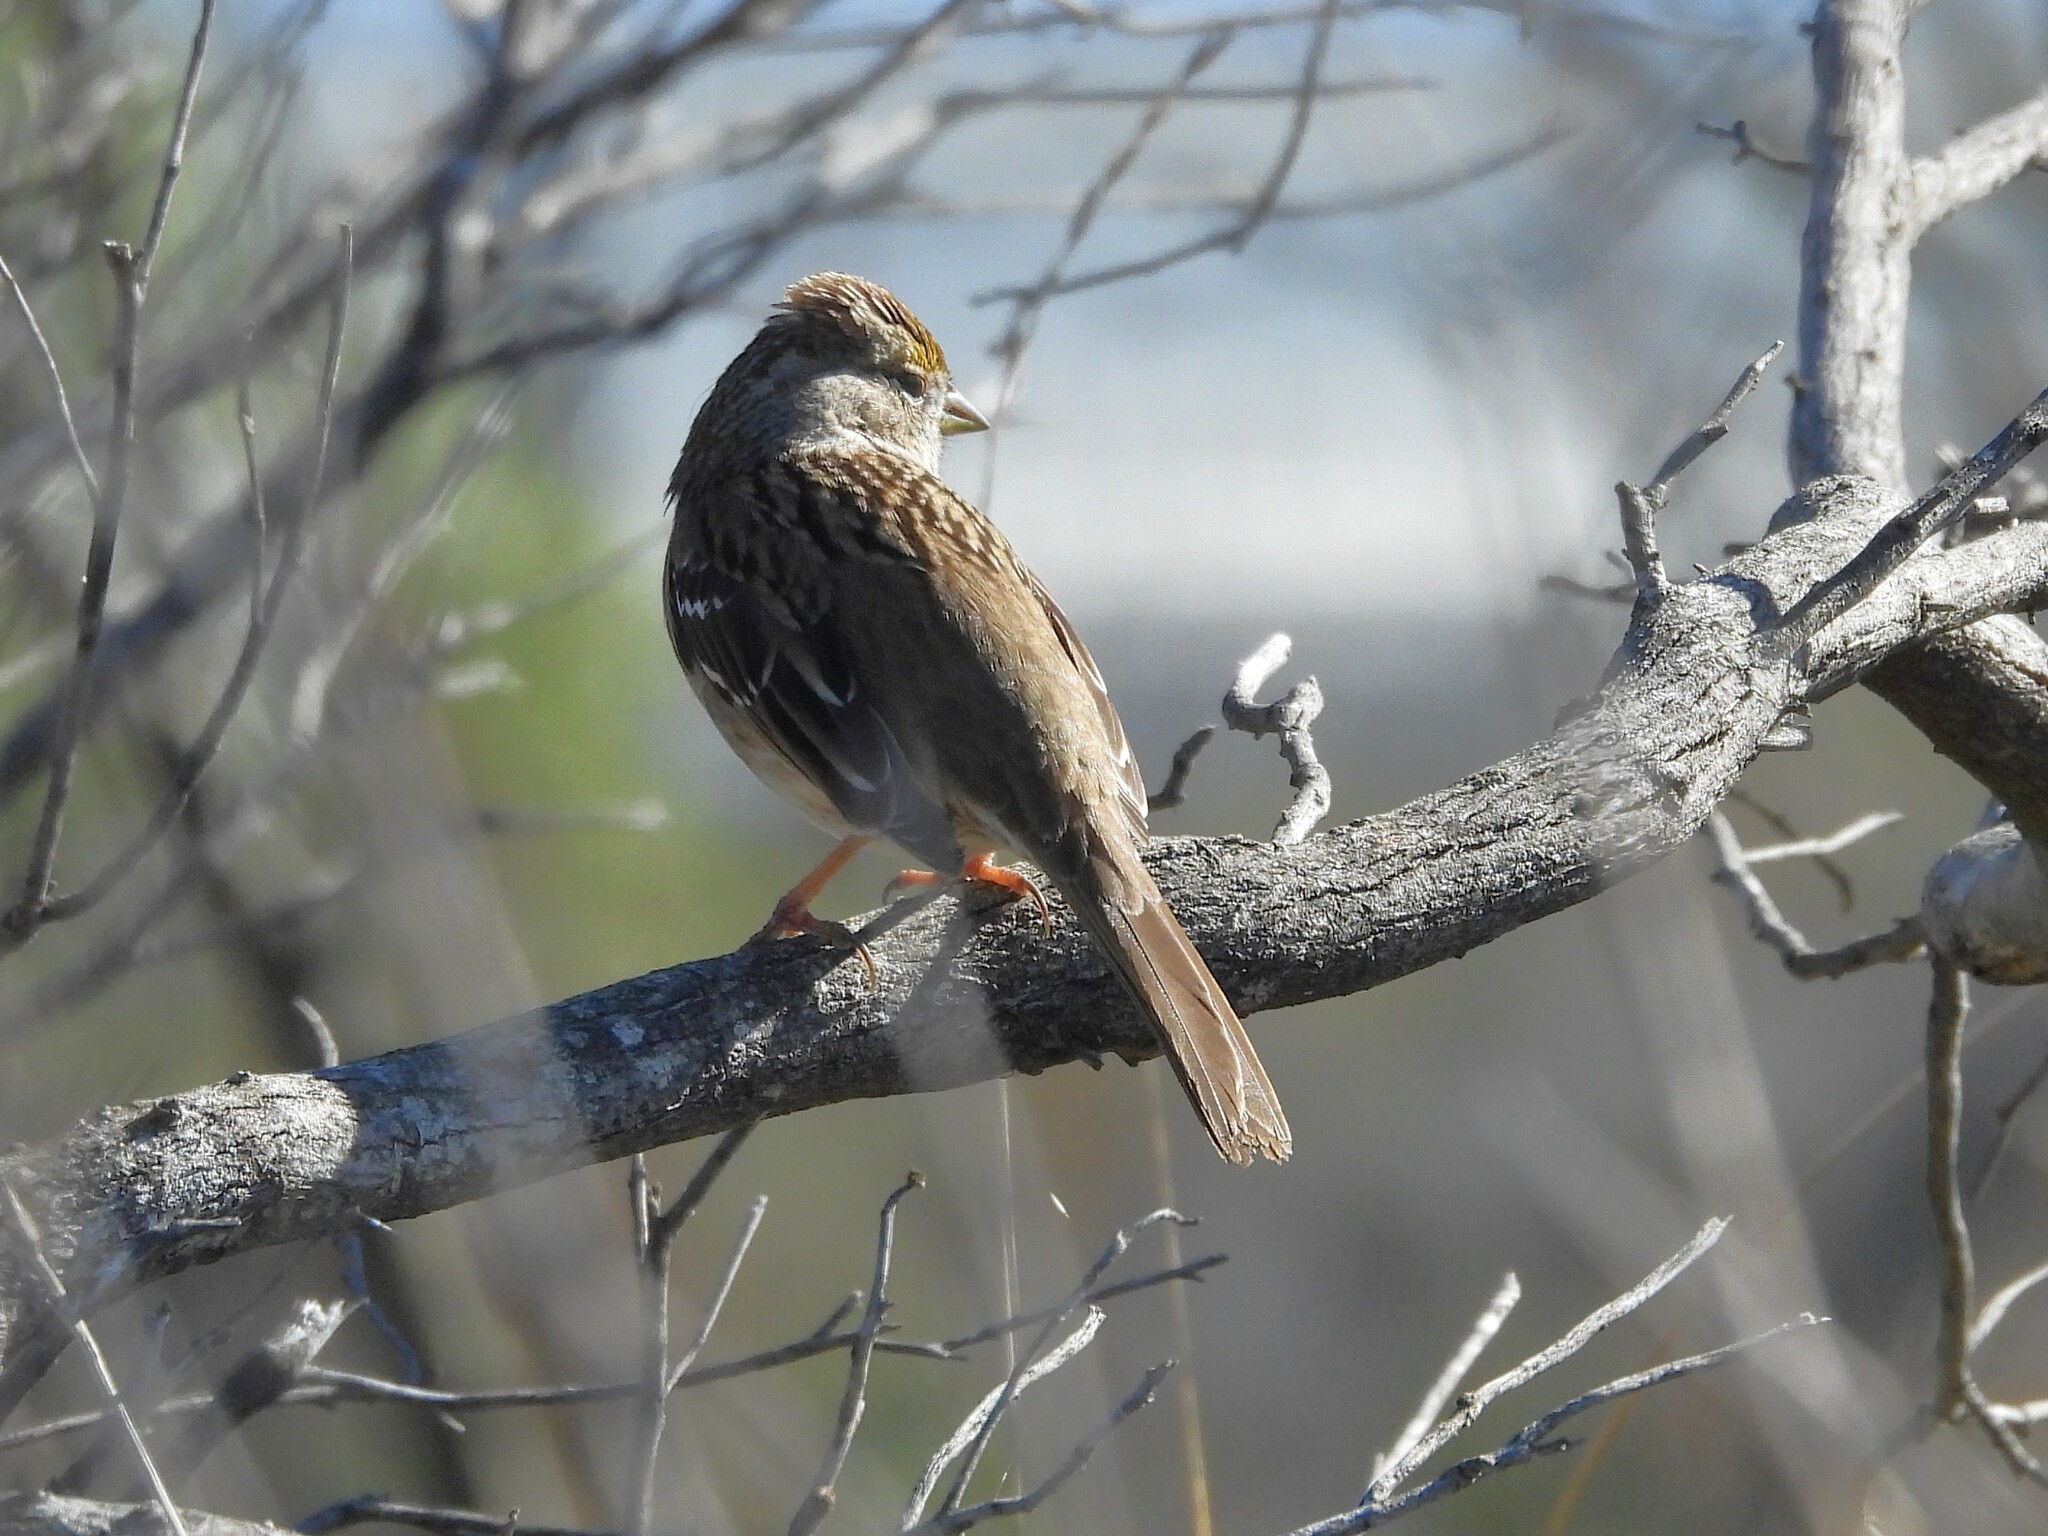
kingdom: Animalia
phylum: Chordata
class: Aves
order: Passeriformes
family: Passerellidae
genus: Zonotrichia
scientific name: Zonotrichia atricapilla
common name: Golden-crowned sparrow
